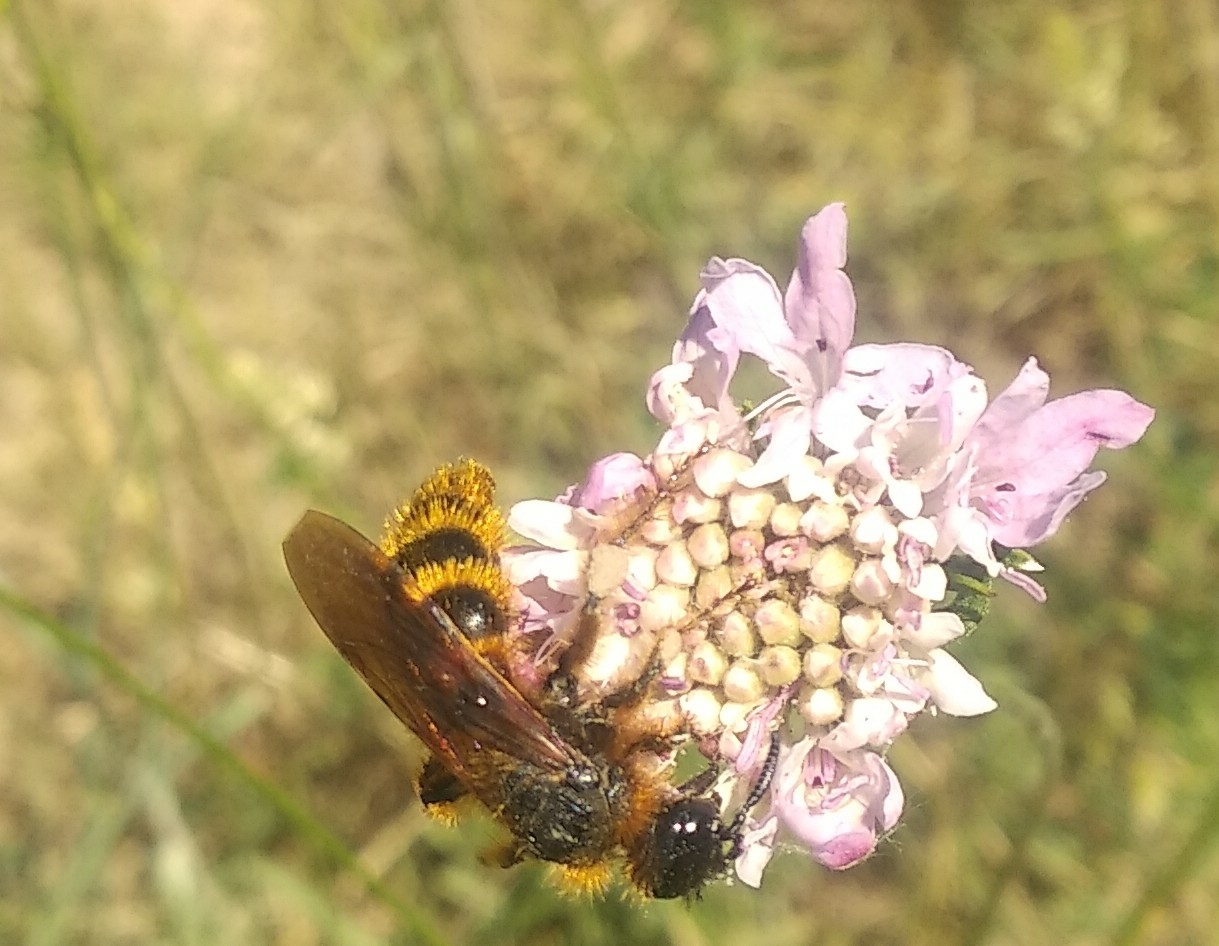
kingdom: Animalia
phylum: Arthropoda
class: Insecta
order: Hymenoptera
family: Scoliidae
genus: Dasyscolia
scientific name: Dasyscolia ciliata
